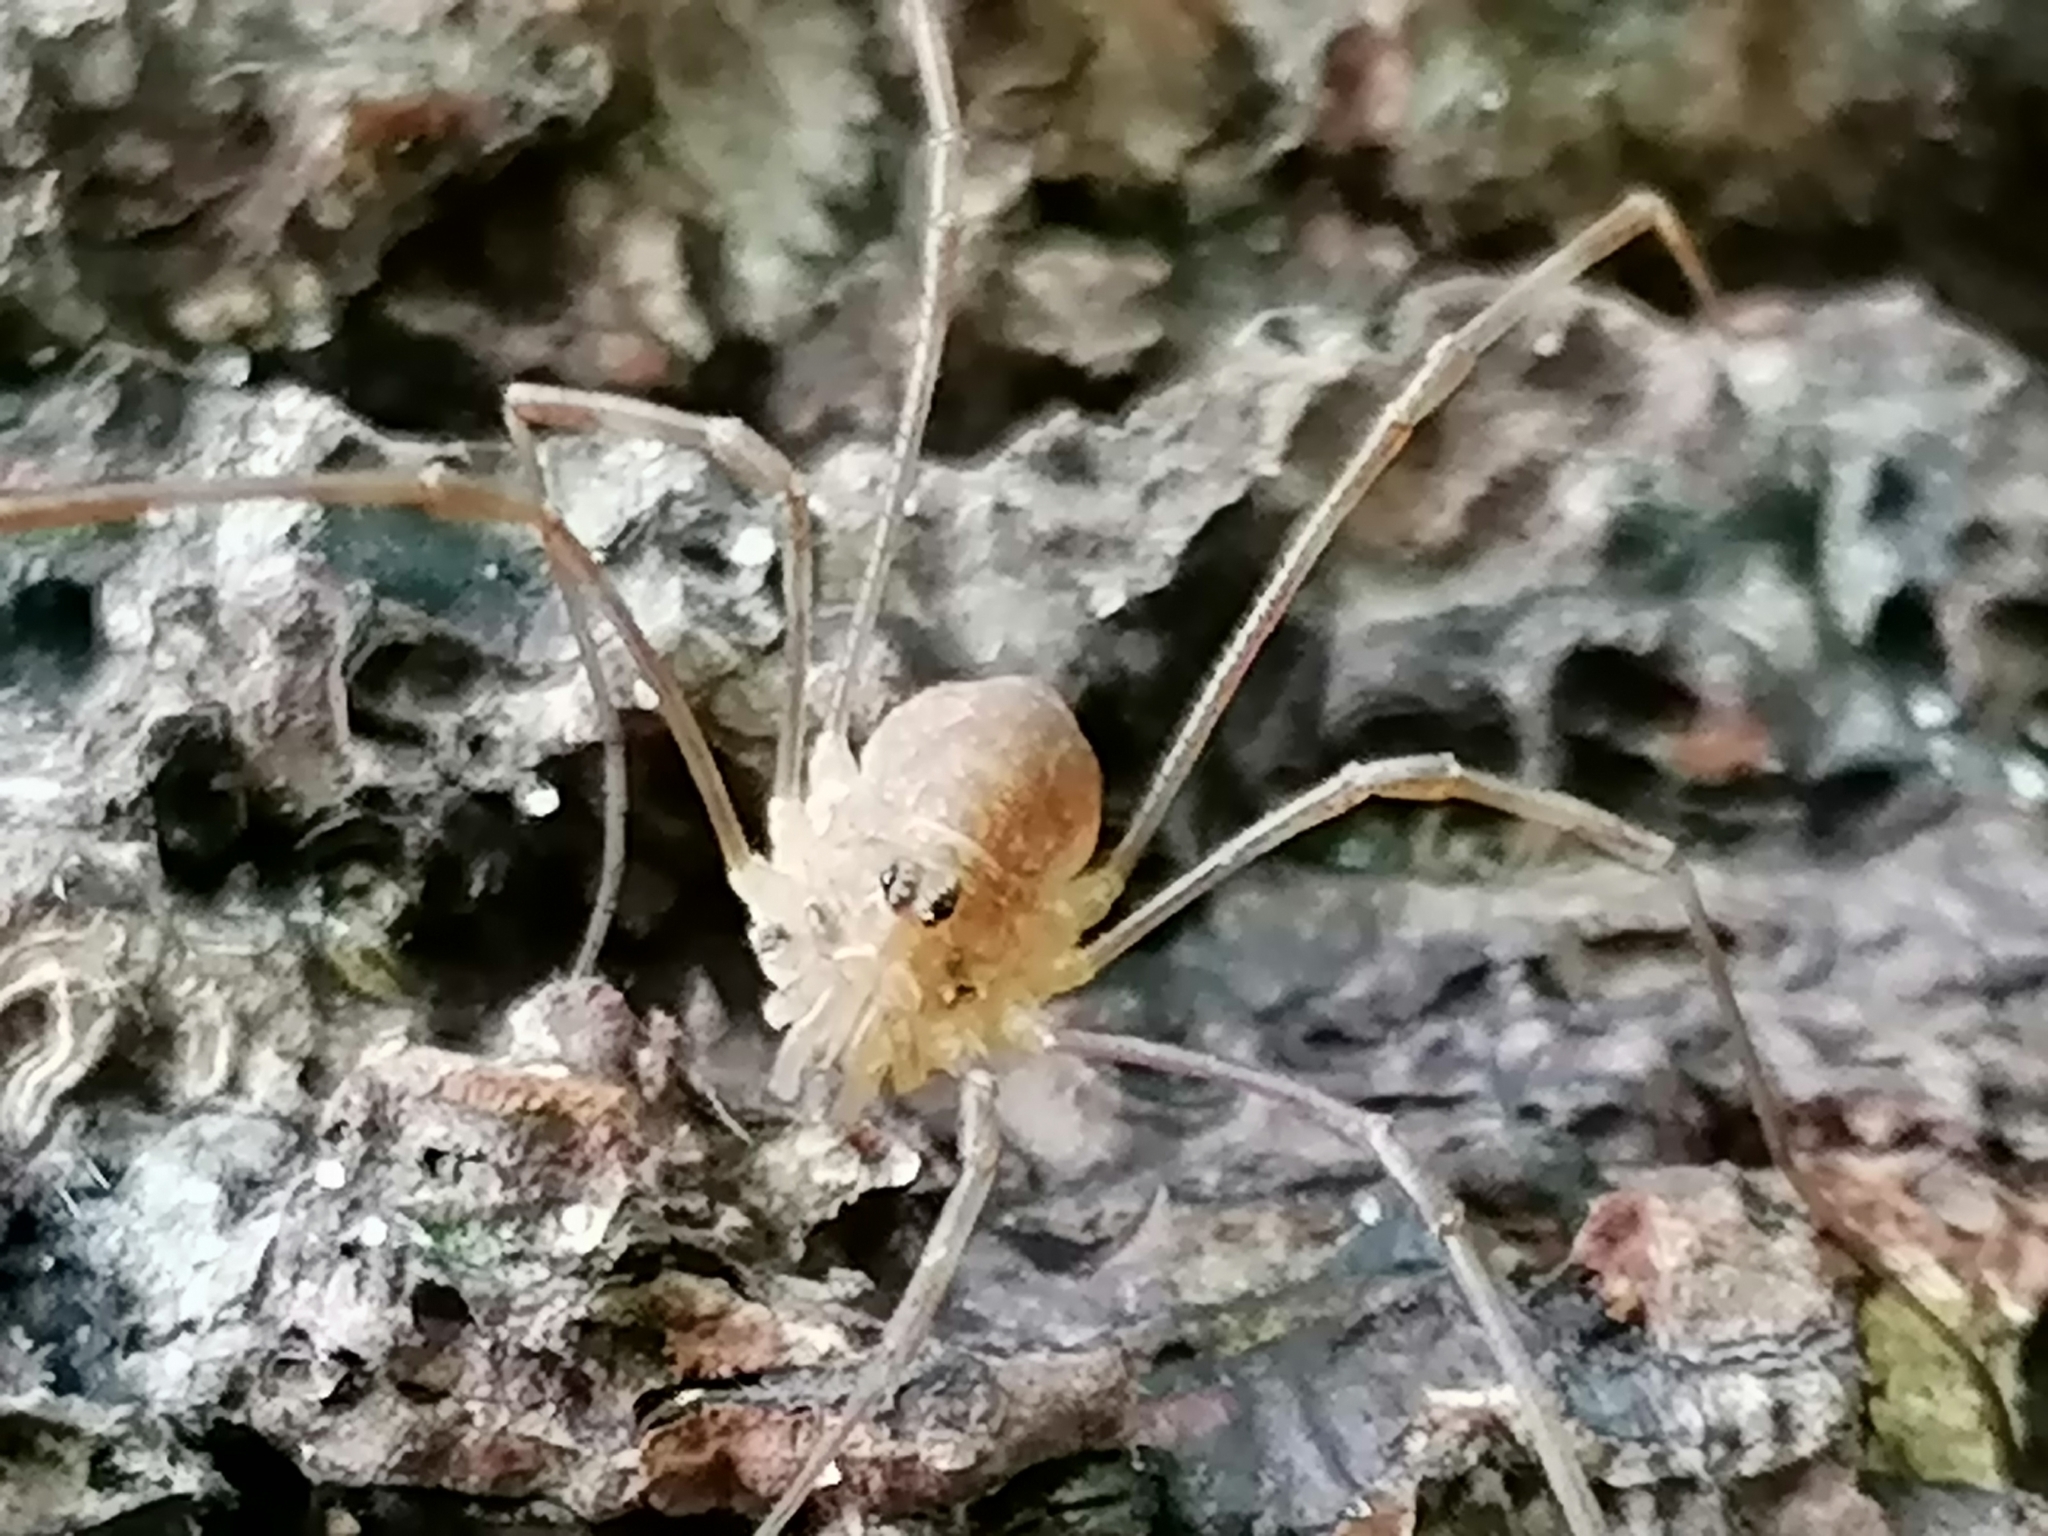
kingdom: Animalia
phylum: Arthropoda
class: Arachnida
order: Opiliones
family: Phalangiidae
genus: Rilaena
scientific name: Rilaena triangularis
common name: Spring harvestman
